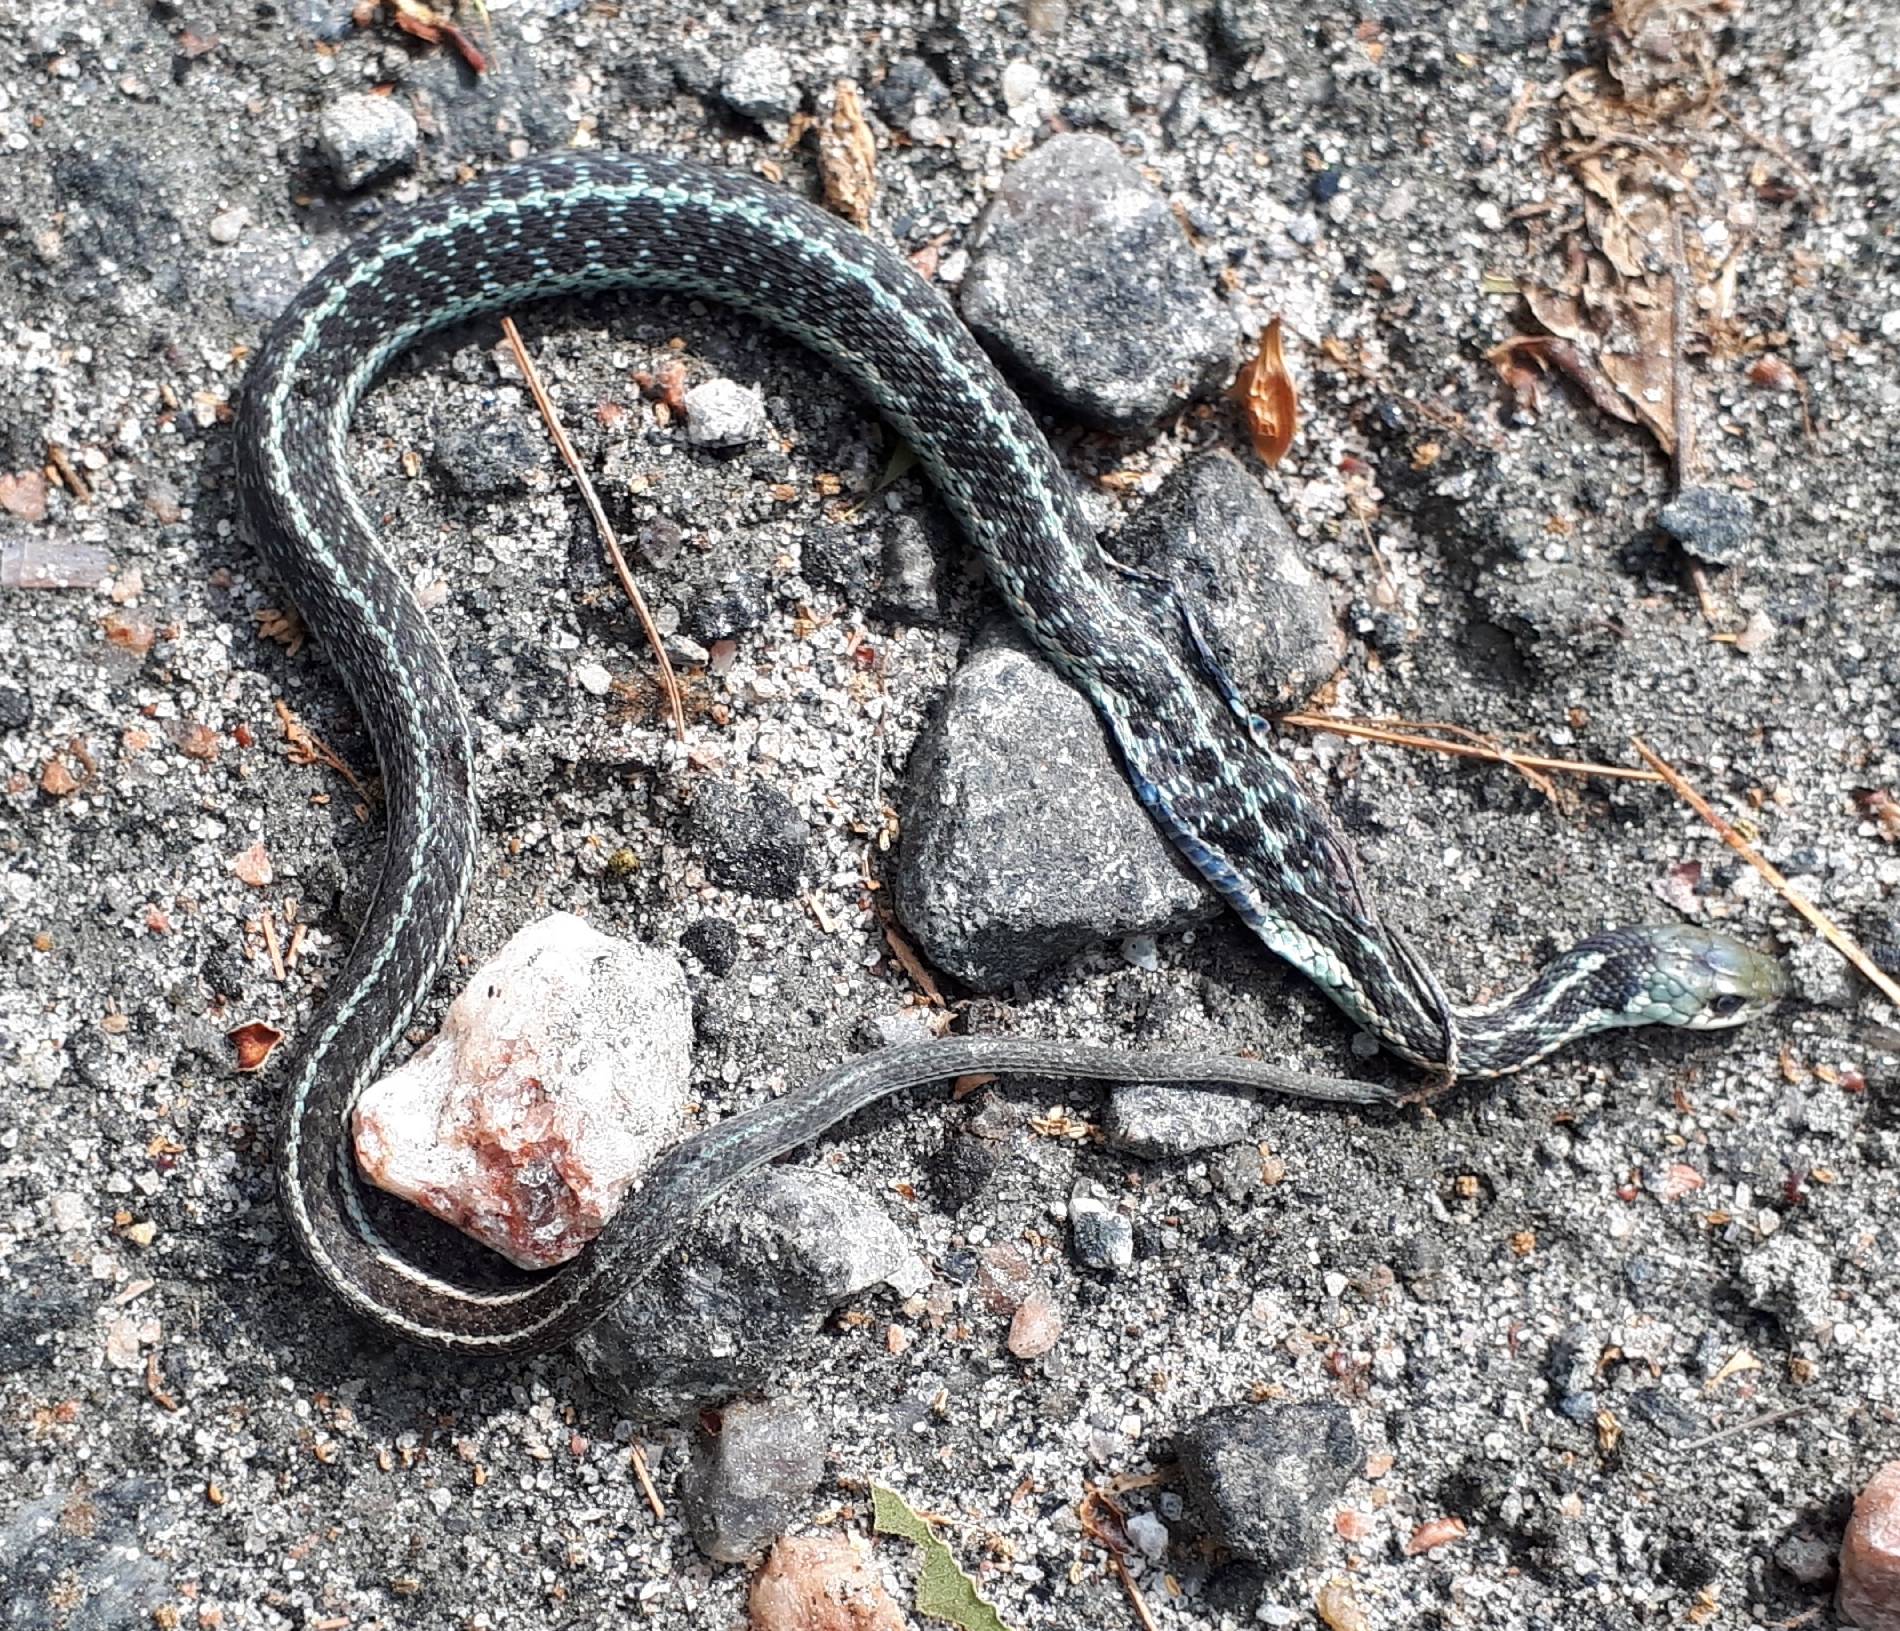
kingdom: Animalia
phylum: Chordata
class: Squamata
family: Colubridae
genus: Thamnophis
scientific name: Thamnophis sirtalis
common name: Common garter snake
